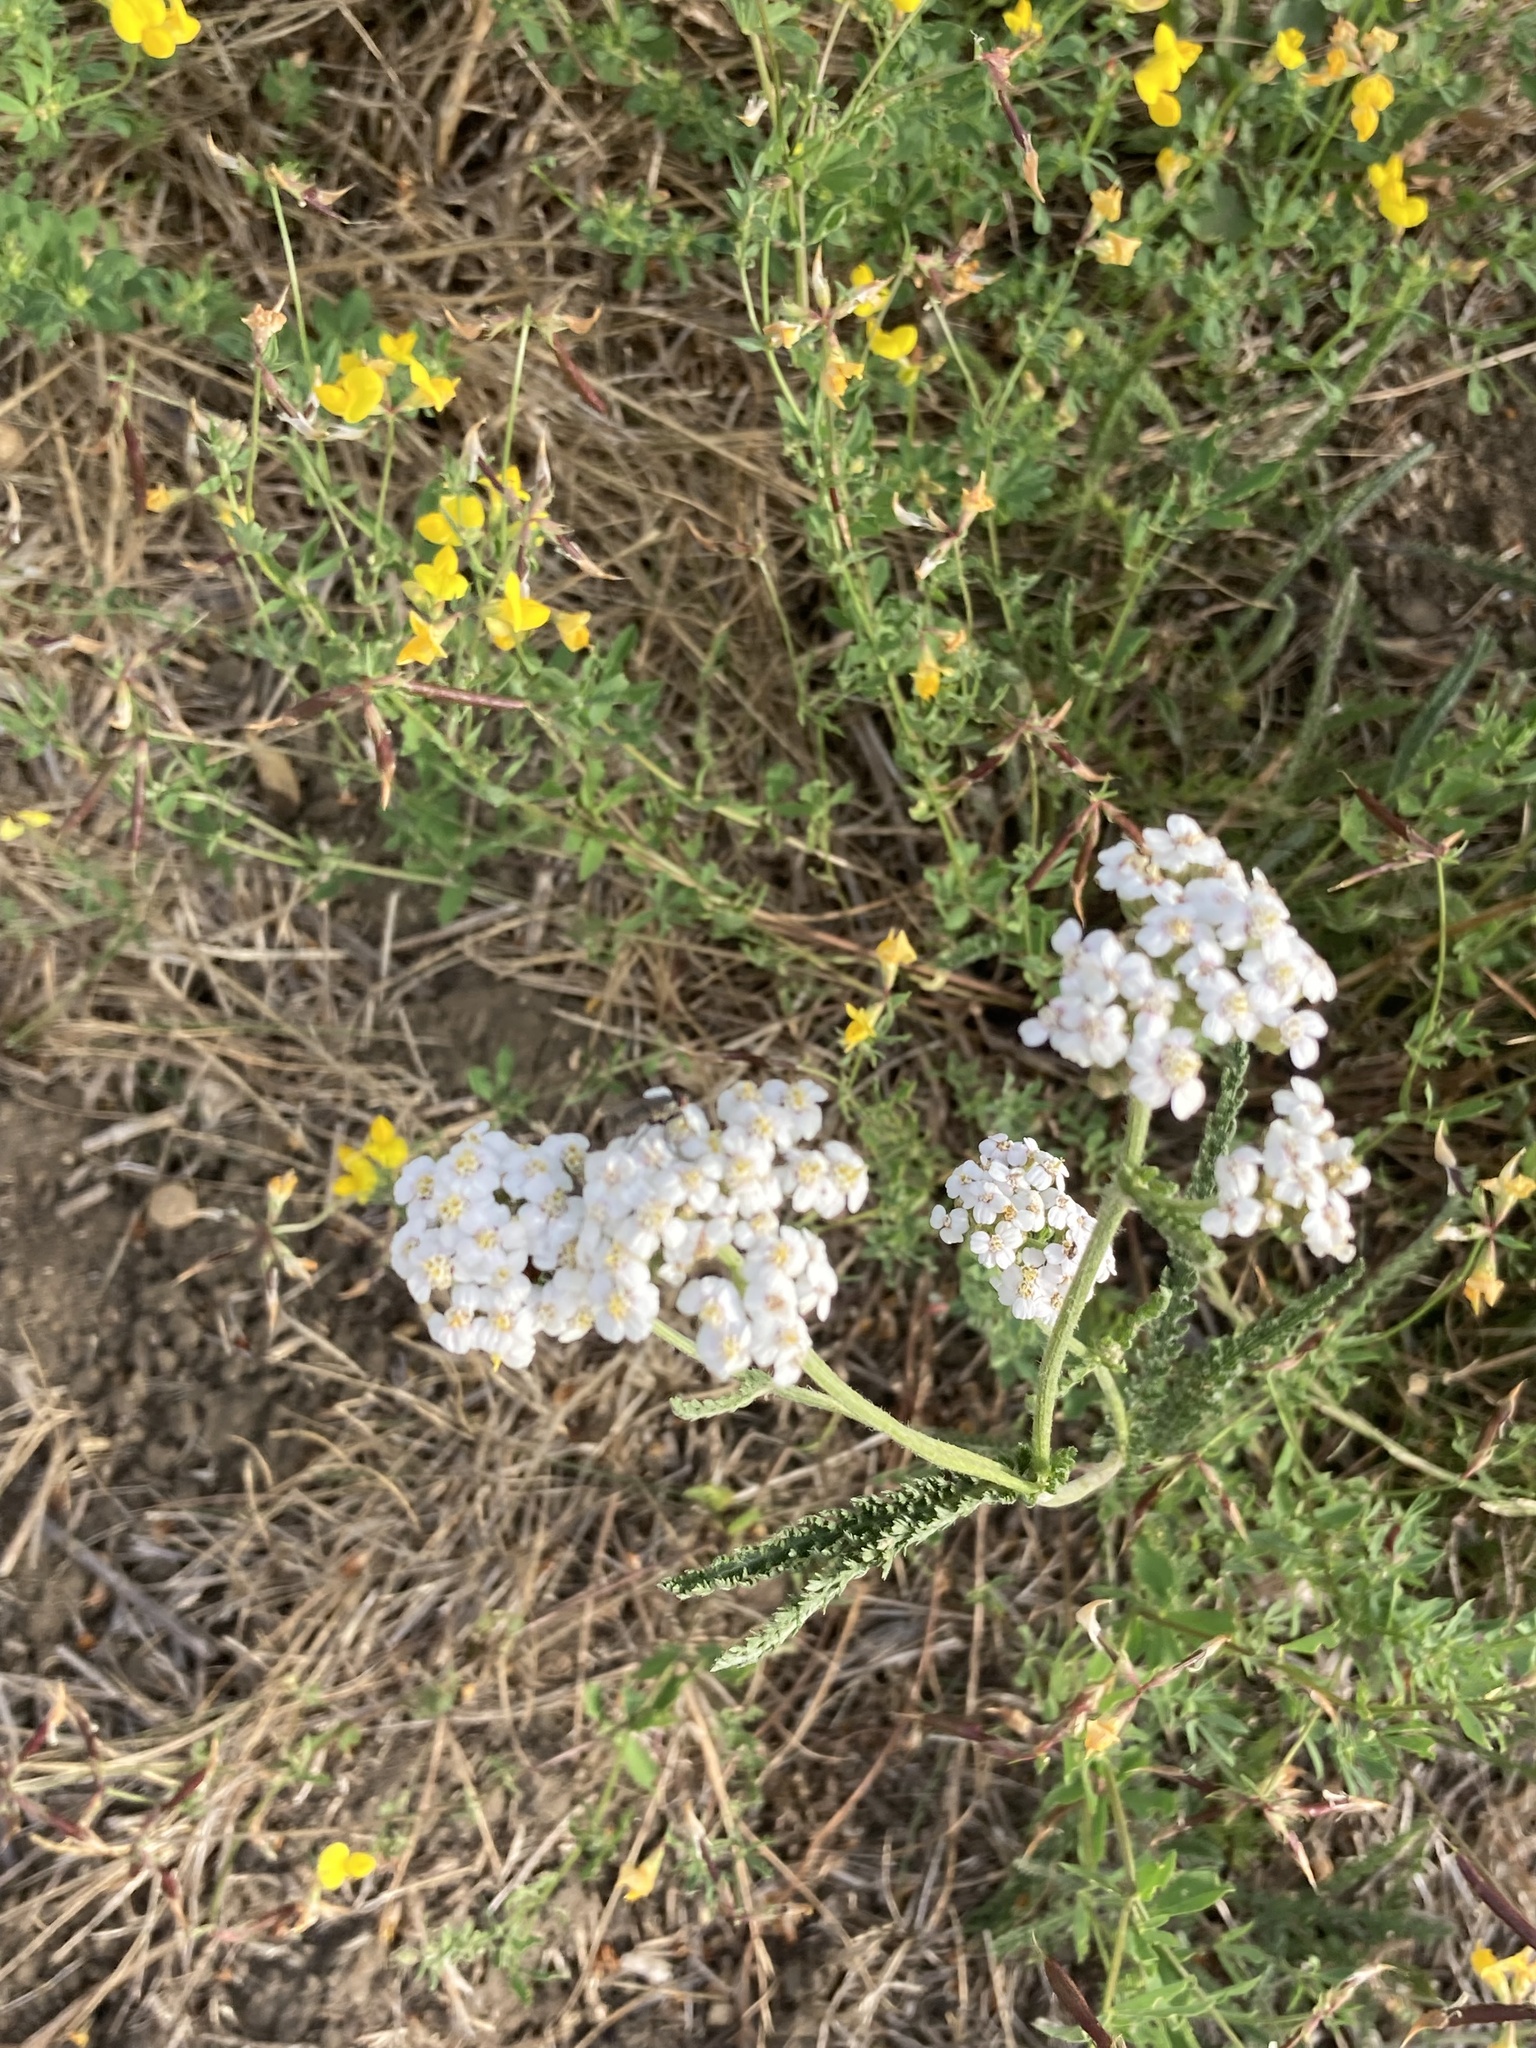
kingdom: Plantae
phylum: Tracheophyta
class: Magnoliopsida
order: Asterales
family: Asteraceae
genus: Achillea
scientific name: Achillea millefolium
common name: Yarrow
